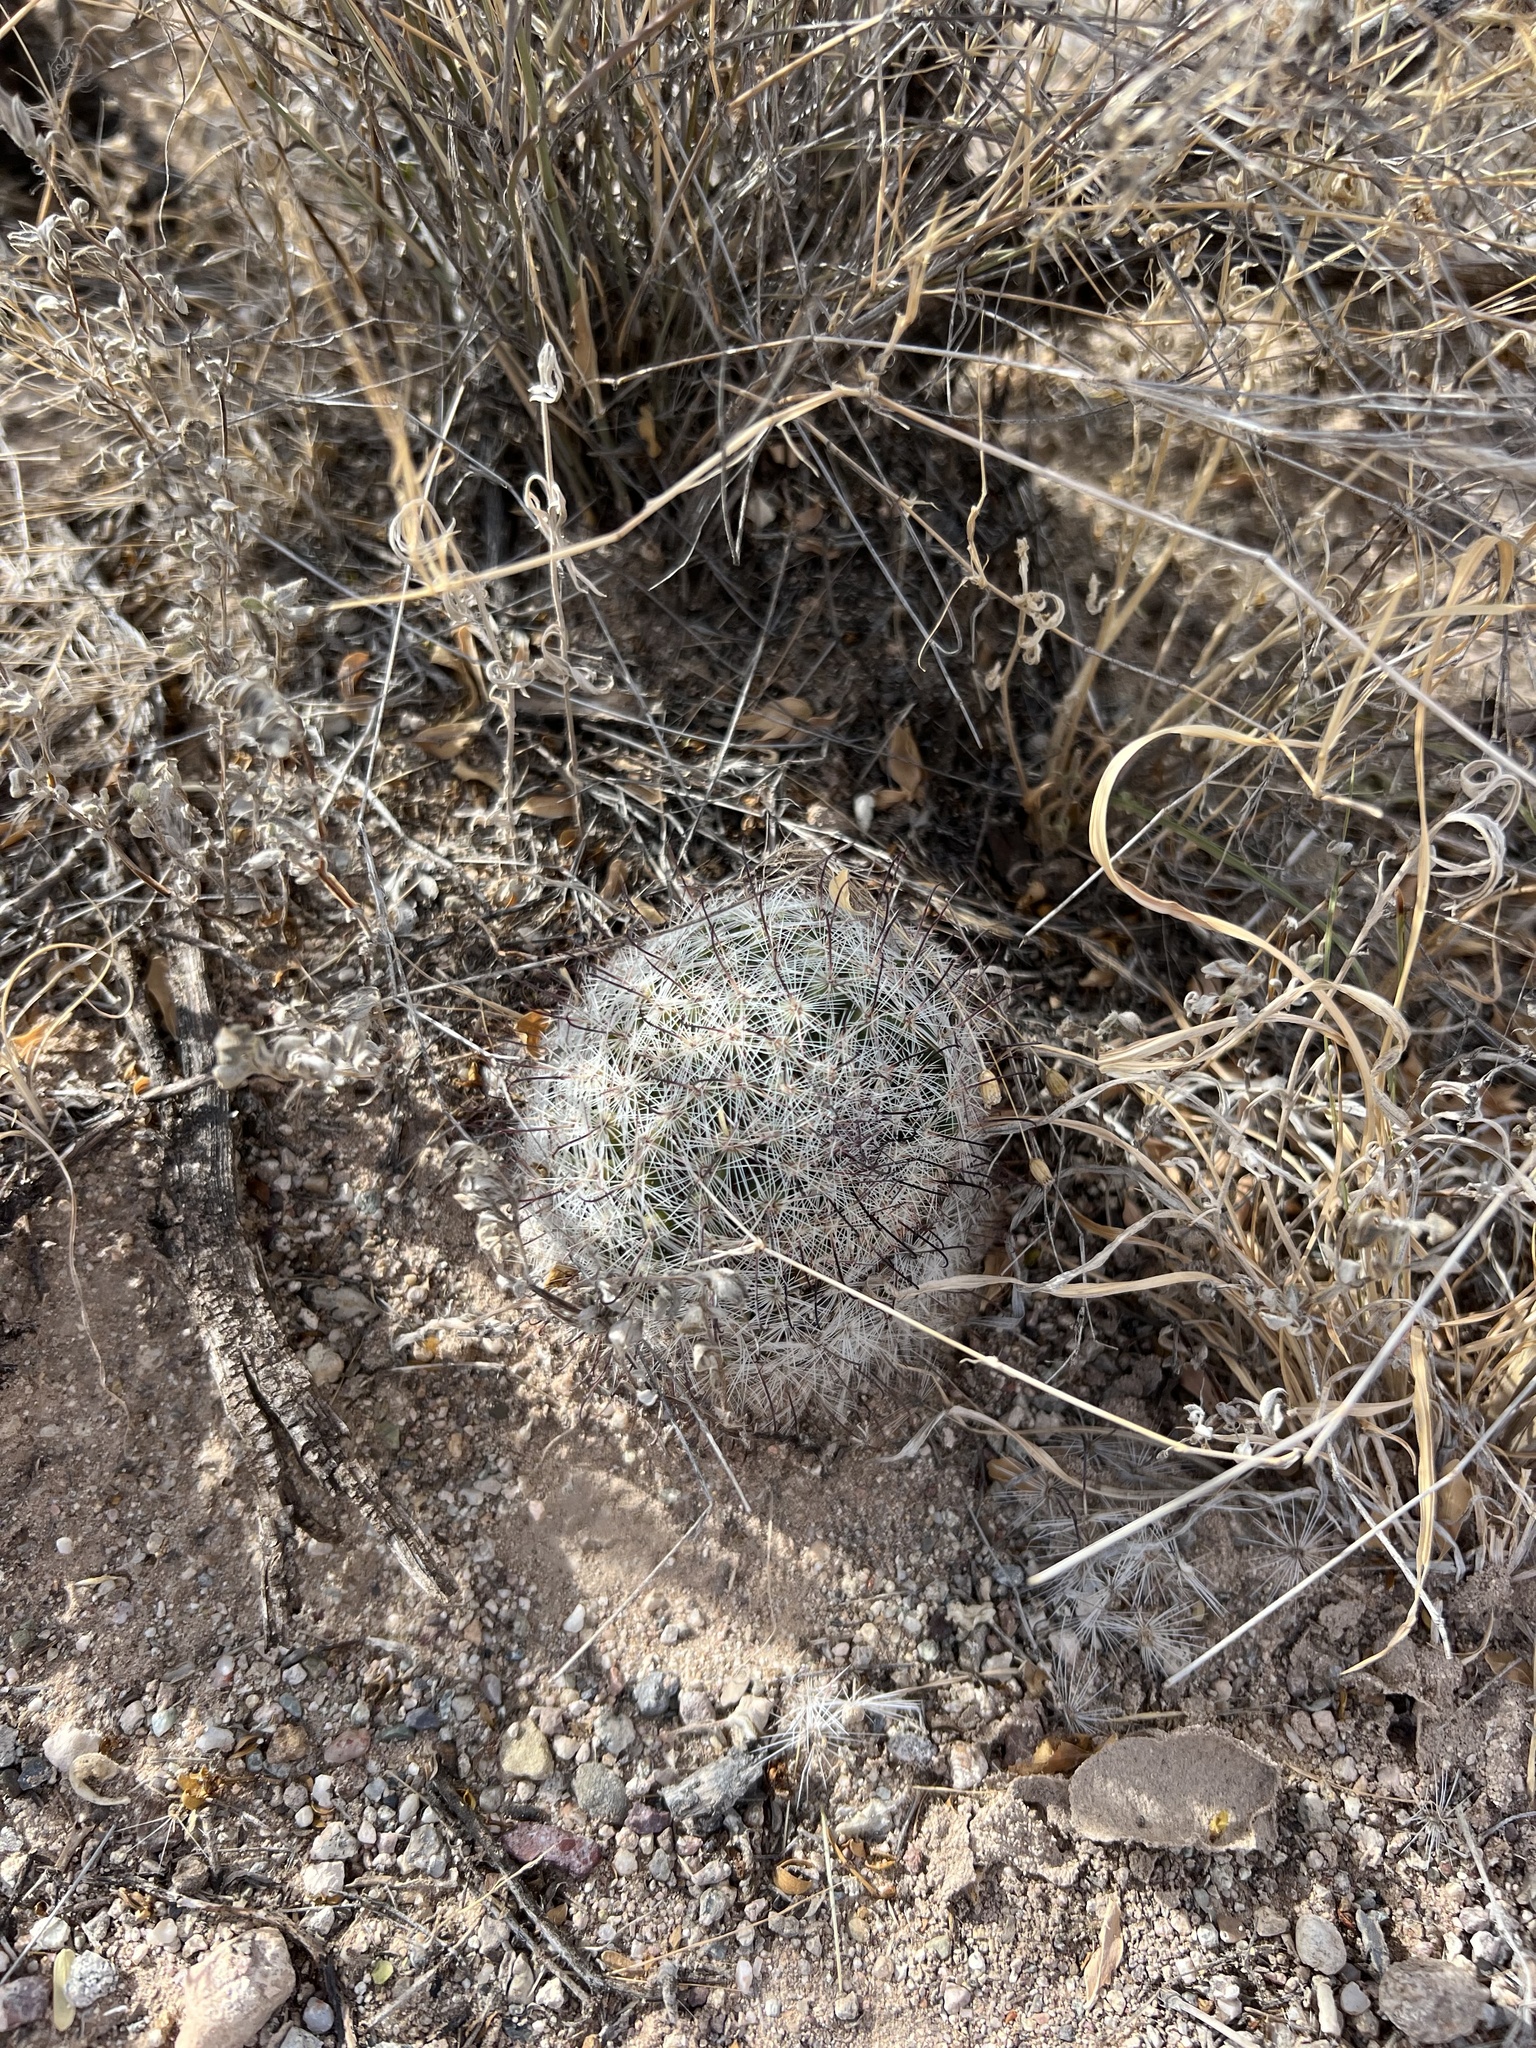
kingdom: Plantae
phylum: Tracheophyta
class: Magnoliopsida
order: Caryophyllales
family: Cactaceae
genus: Cochemiea
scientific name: Cochemiea grahamii
